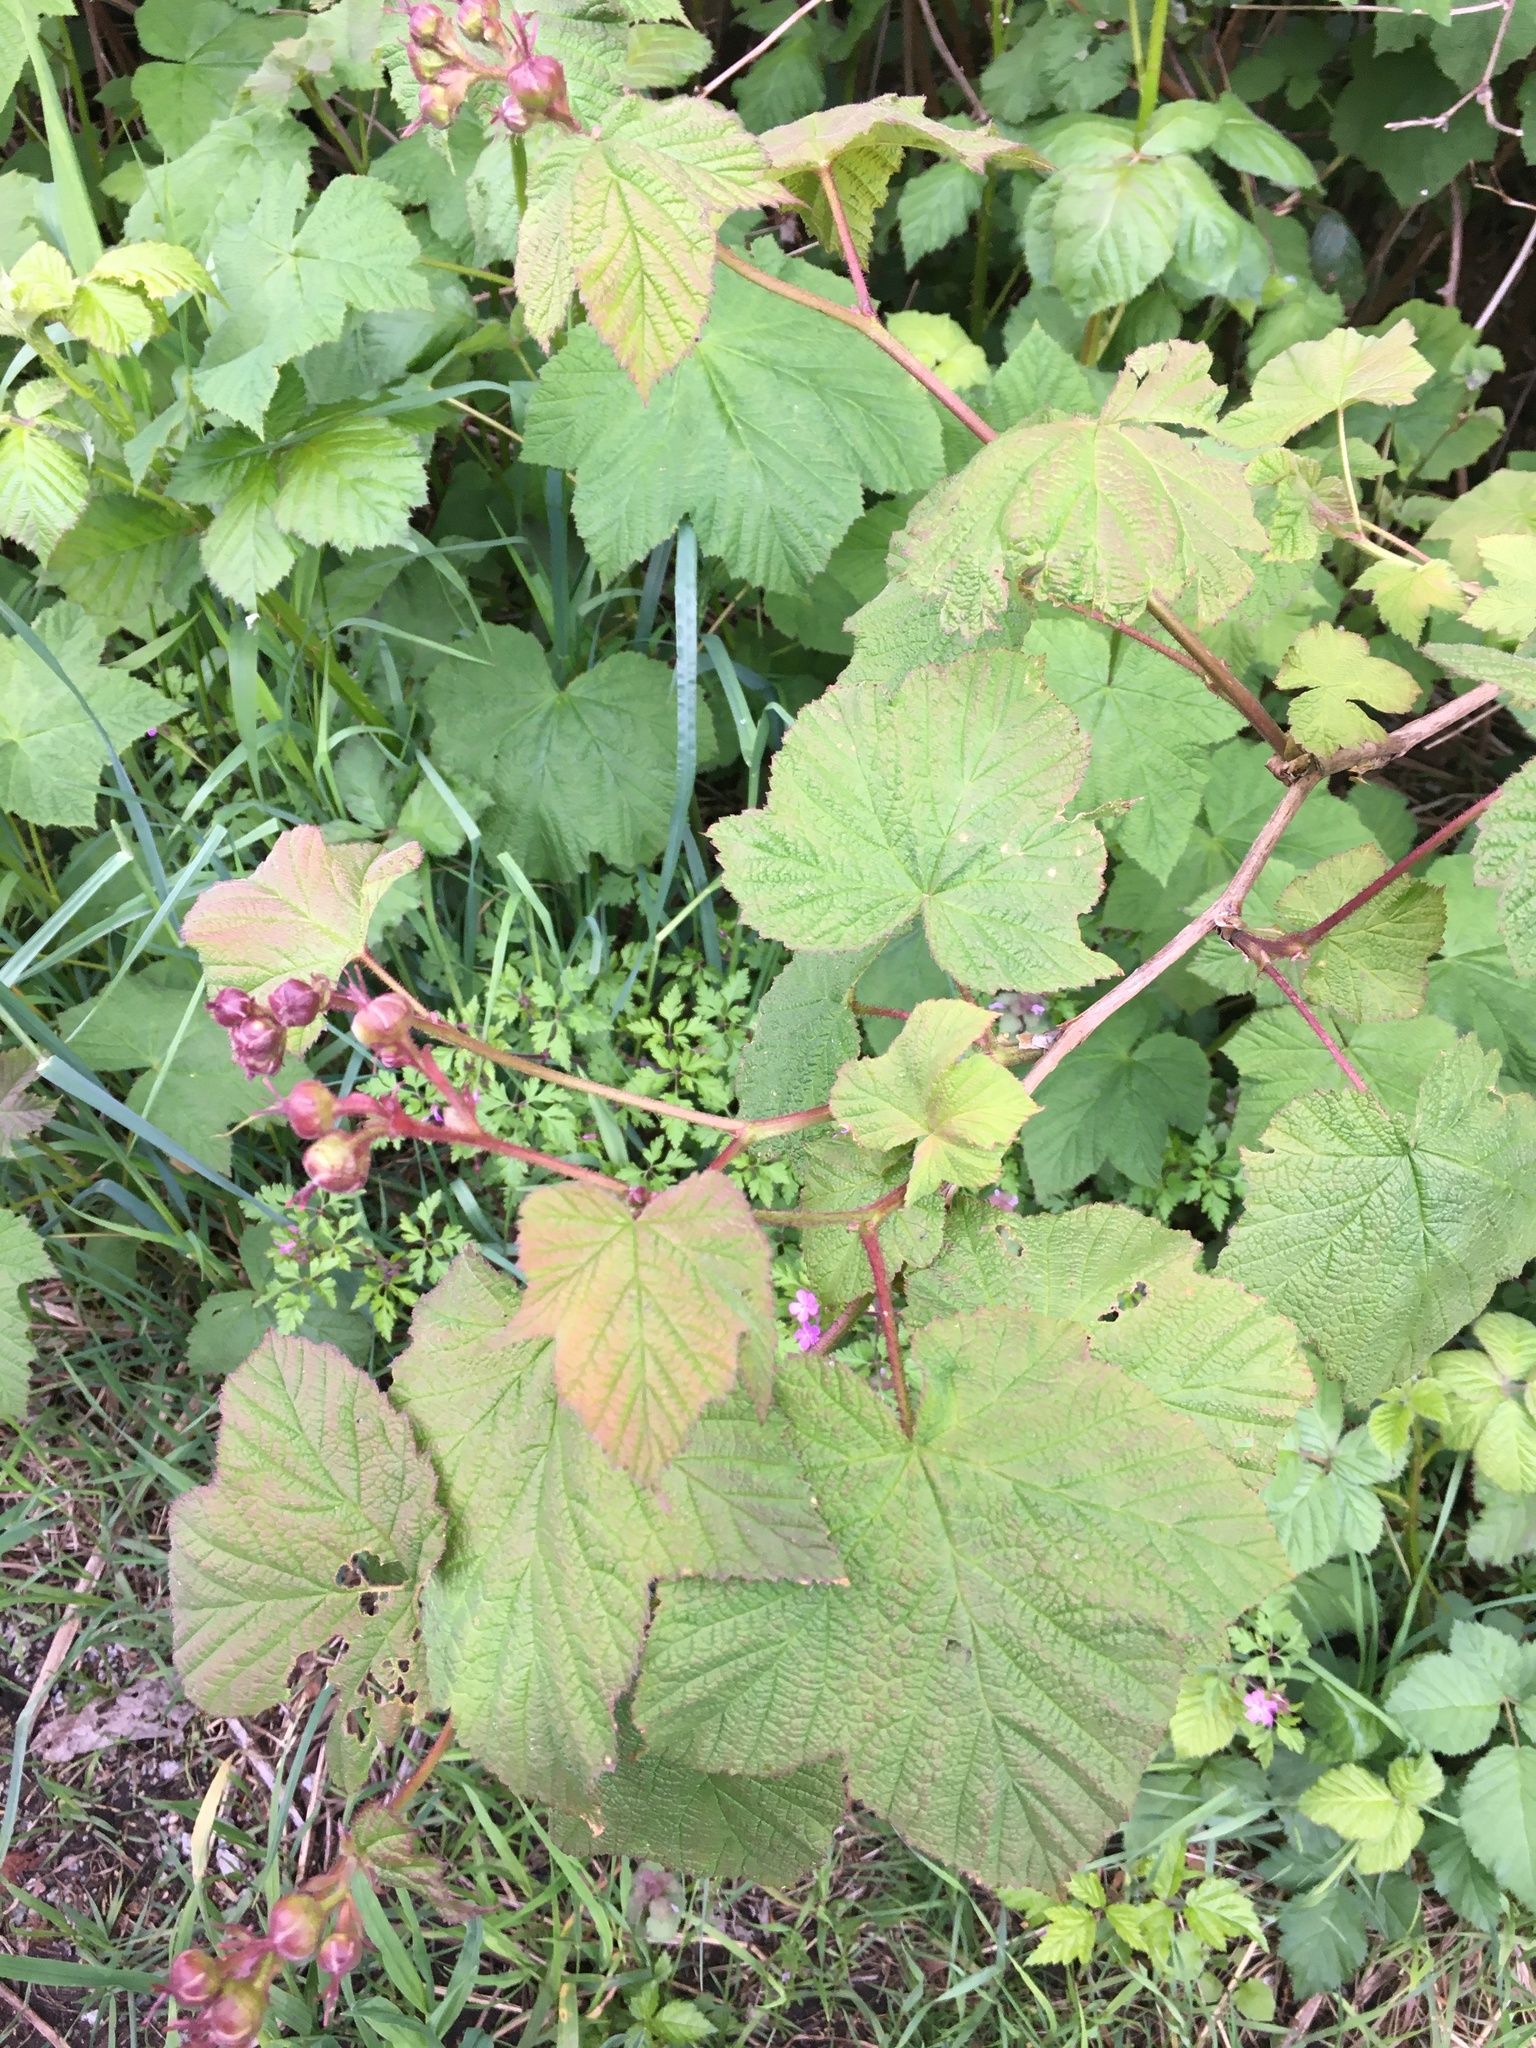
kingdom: Plantae
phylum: Tracheophyta
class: Magnoliopsida
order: Rosales
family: Rosaceae
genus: Rubus
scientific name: Rubus parviflorus
